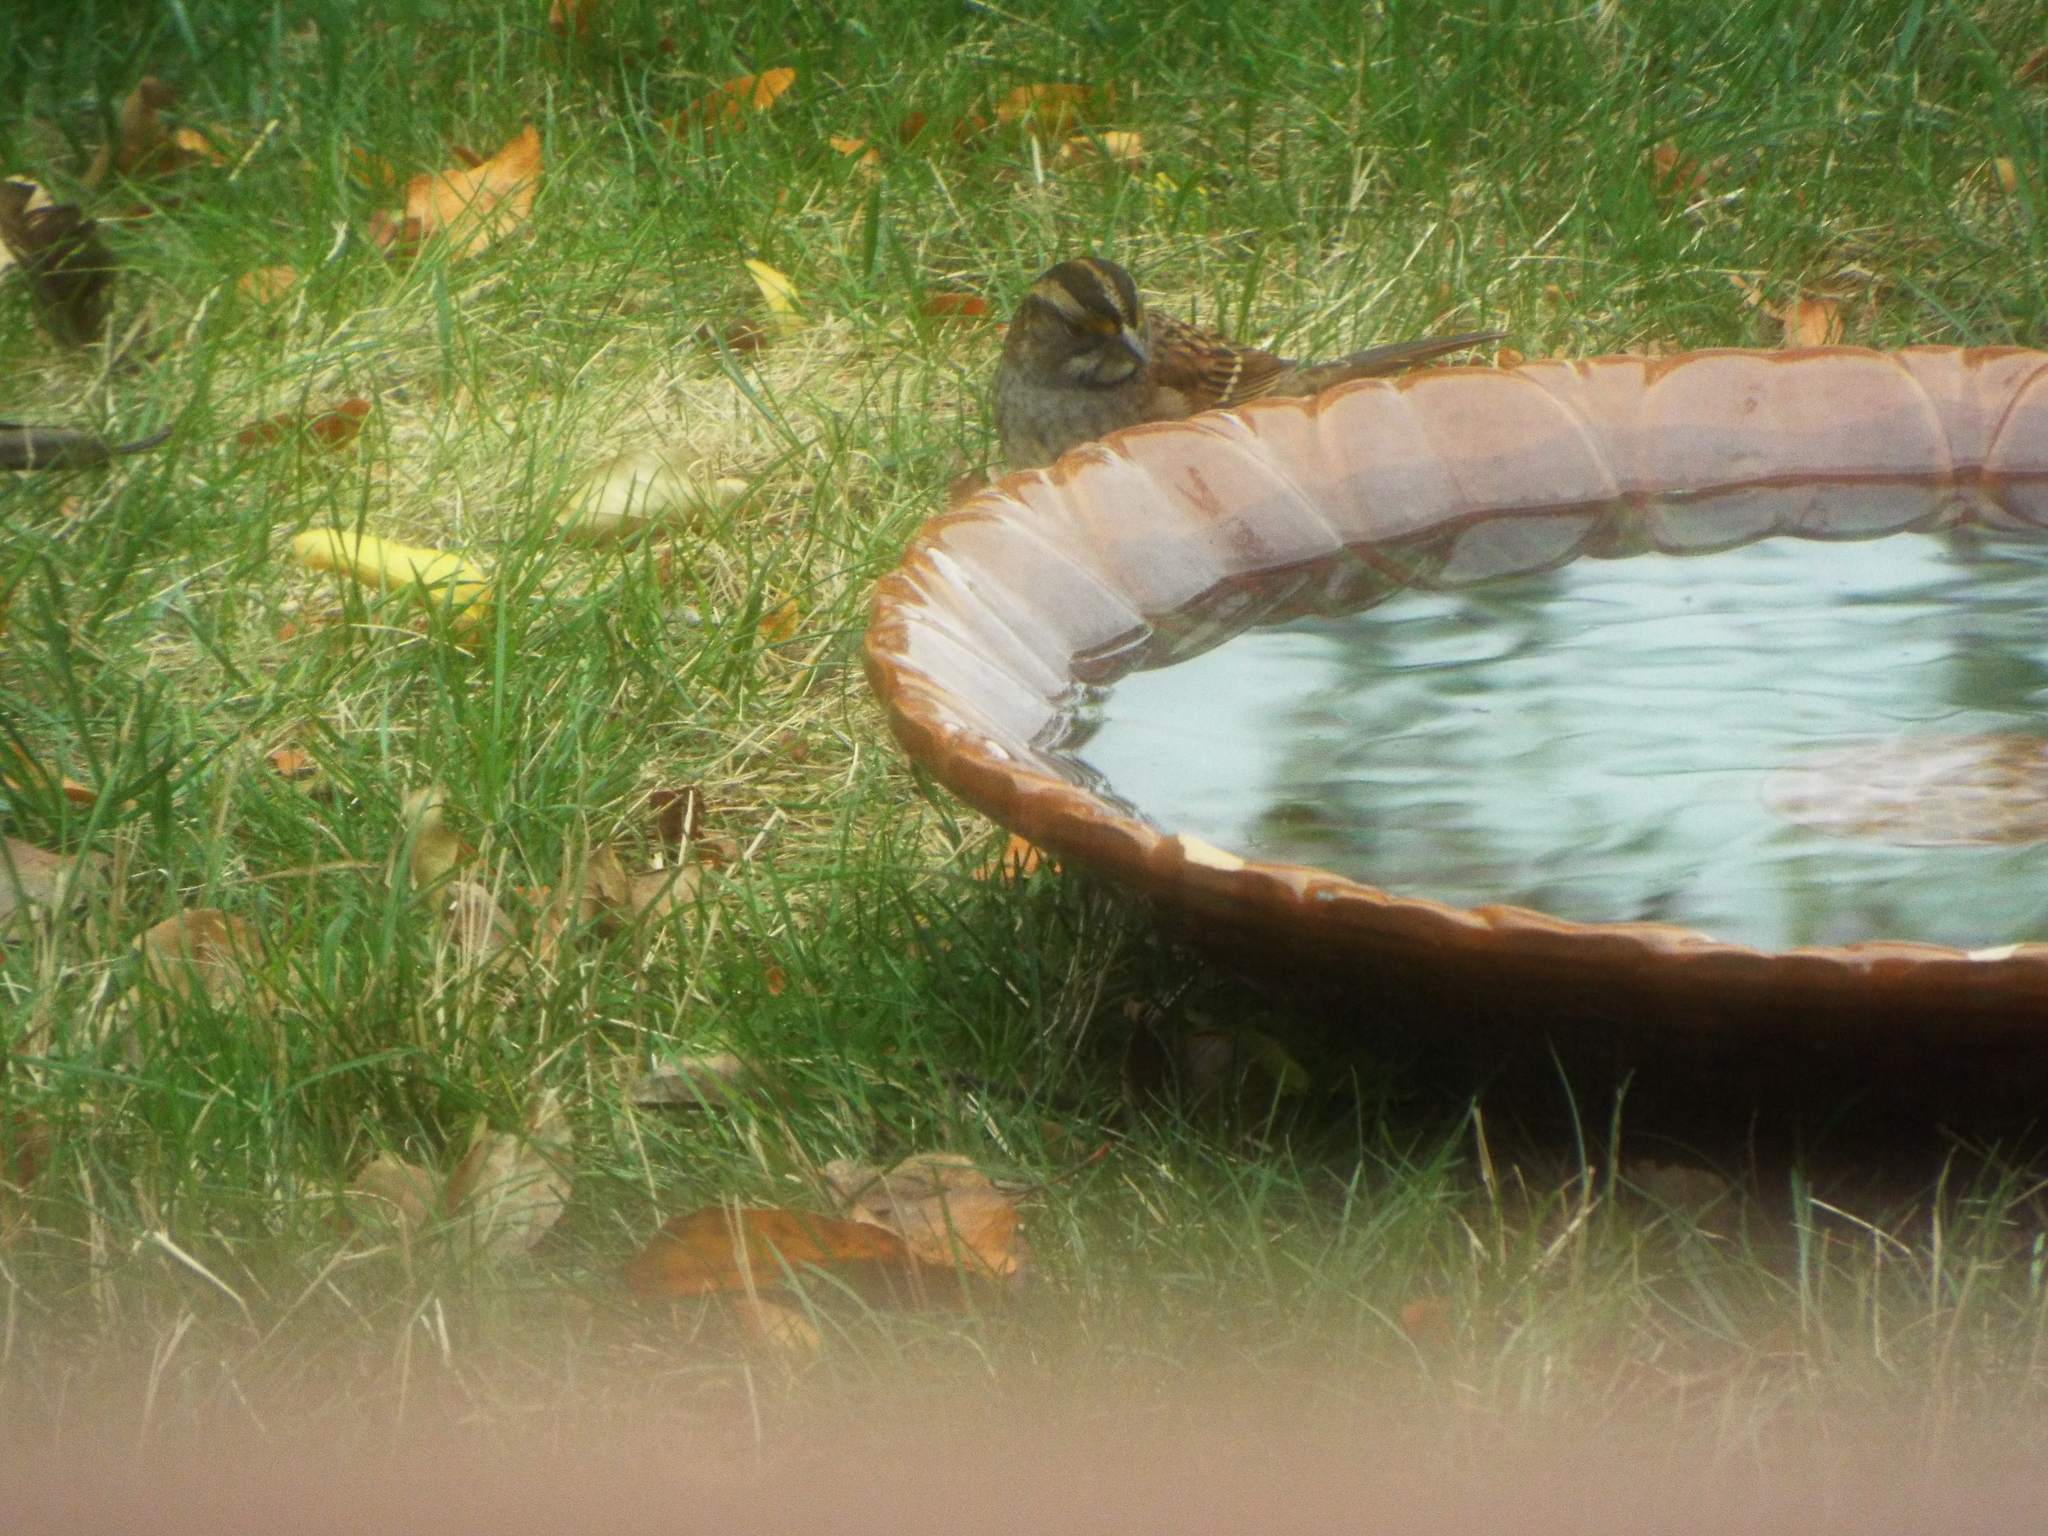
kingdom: Animalia
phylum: Chordata
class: Aves
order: Passeriformes
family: Passerellidae
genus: Zonotrichia
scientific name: Zonotrichia albicollis
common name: White-throated sparrow
